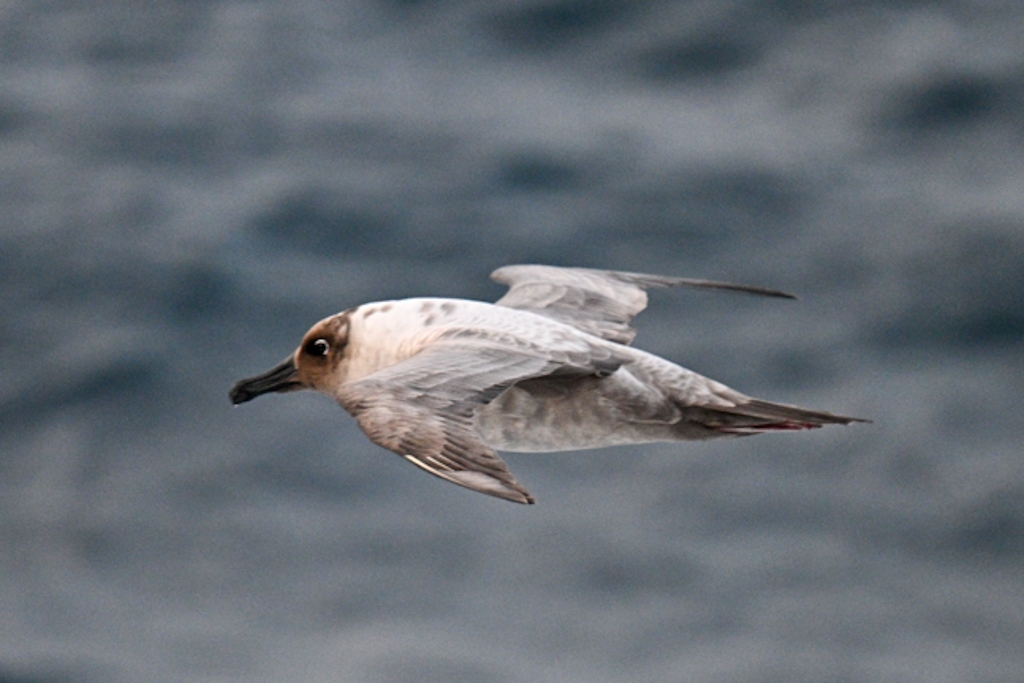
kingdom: Animalia
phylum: Chordata
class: Aves
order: Procellariiformes
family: Diomedeidae
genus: Phoebetria
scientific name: Phoebetria palpebrata
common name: Light-mantled albatross
